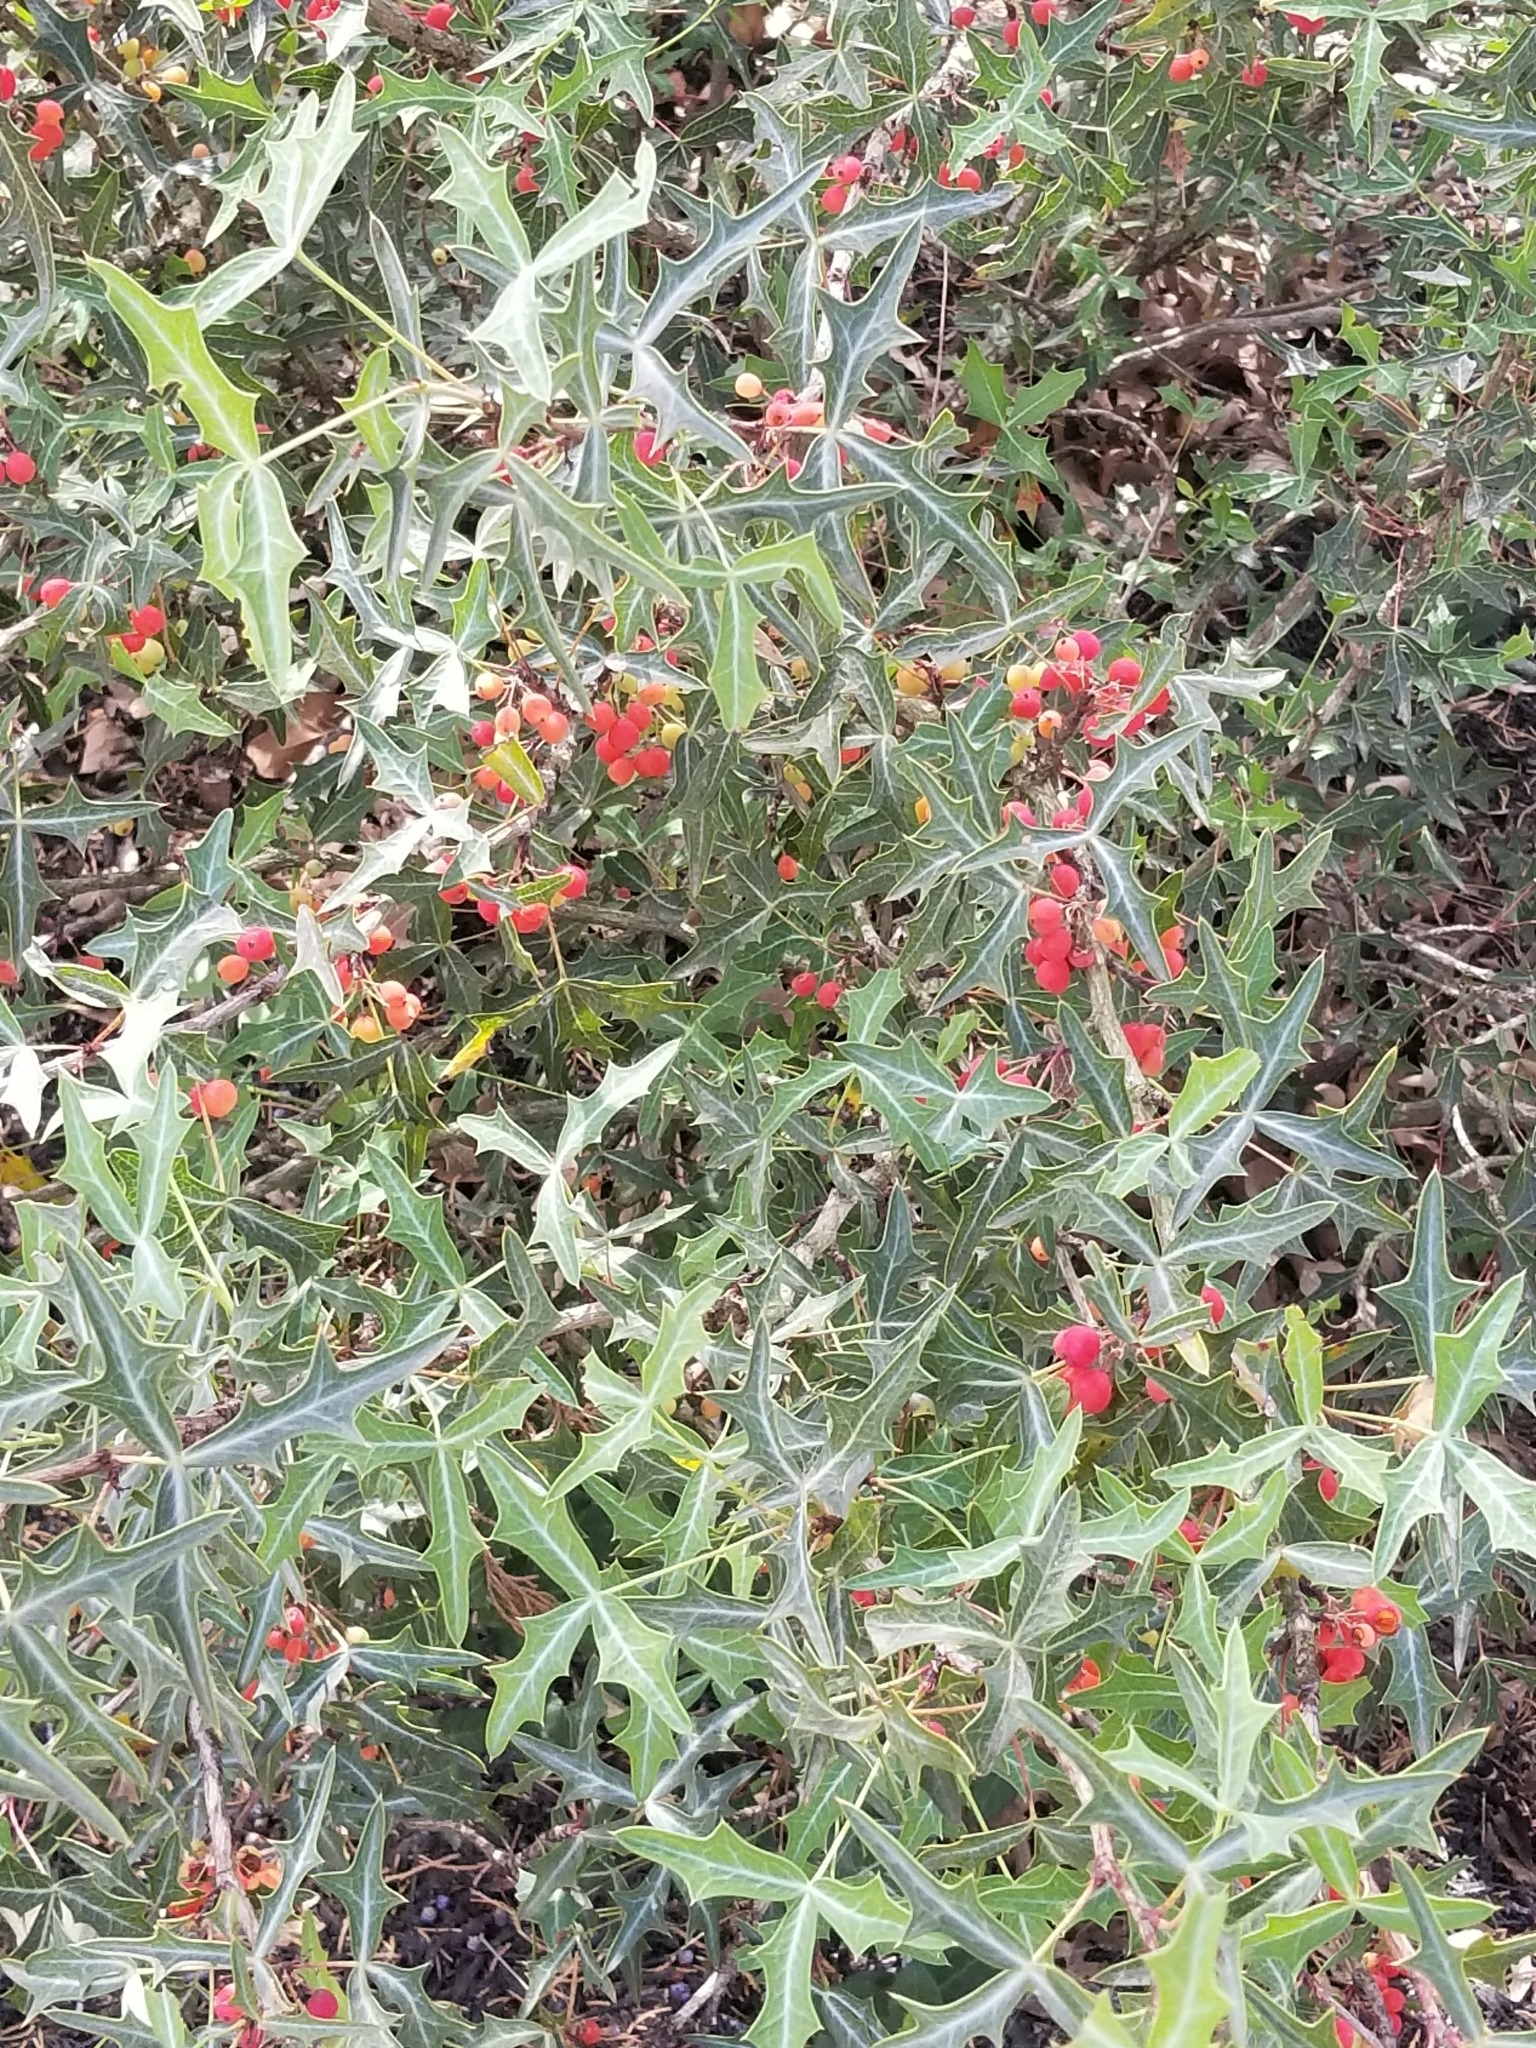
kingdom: Plantae
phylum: Tracheophyta
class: Magnoliopsida
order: Ranunculales
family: Berberidaceae
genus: Alloberberis
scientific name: Alloberberis trifoliolata
